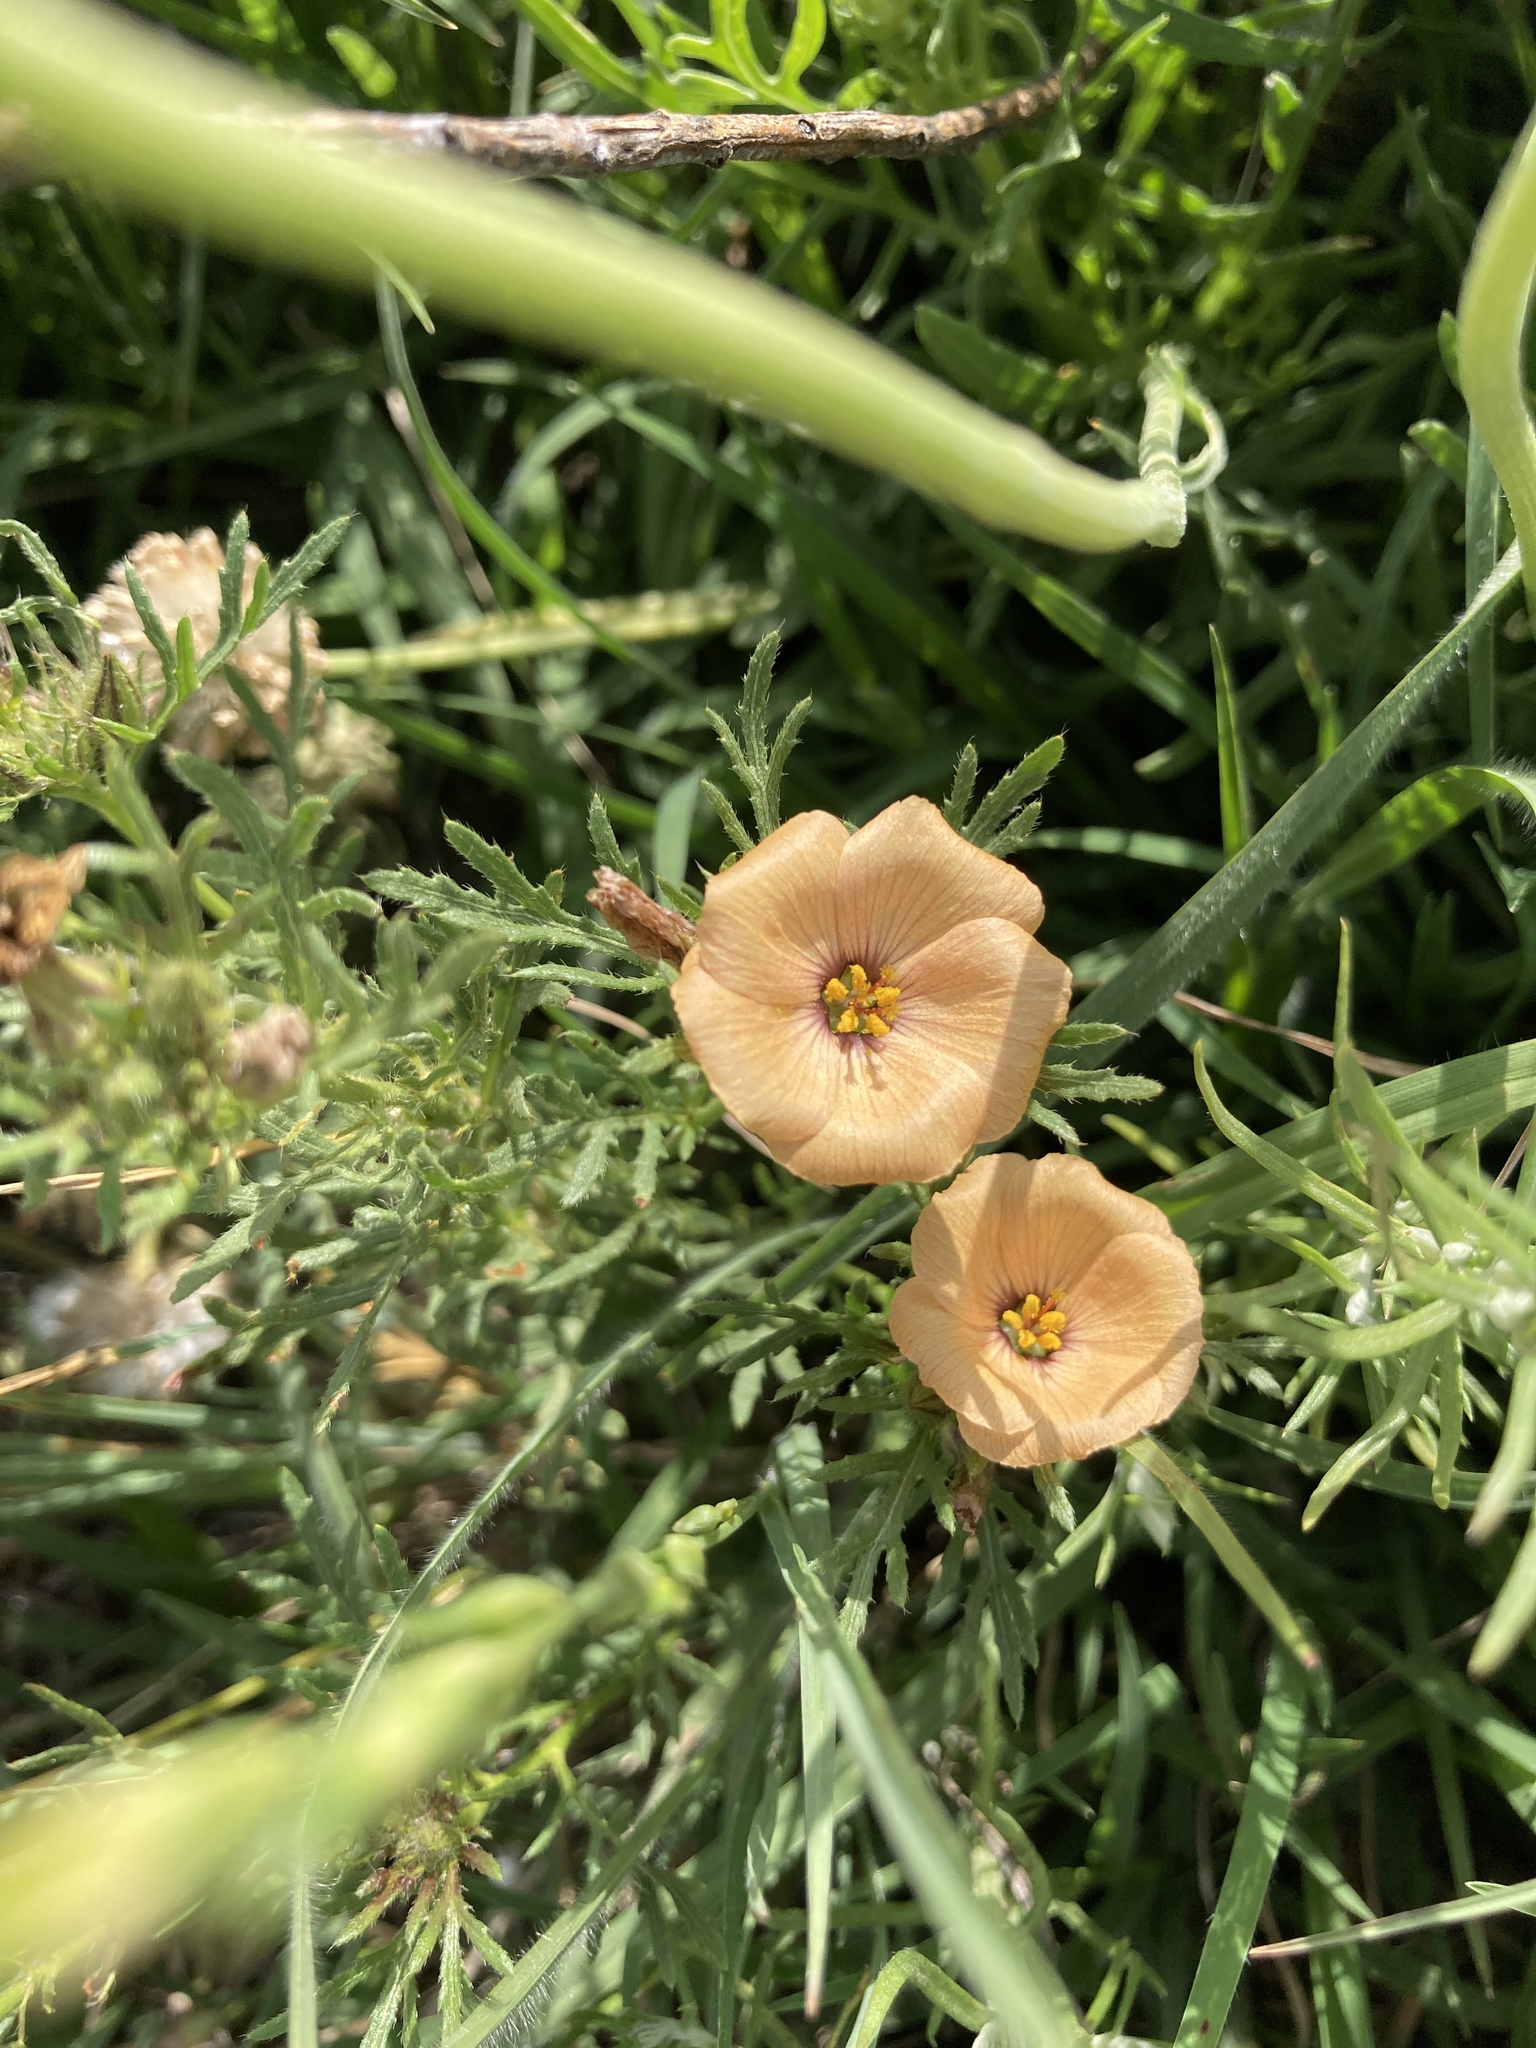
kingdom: Plantae
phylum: Tracheophyta
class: Magnoliopsida
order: Malpighiales
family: Turneraceae
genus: Turnera
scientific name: Turnera sidoides
